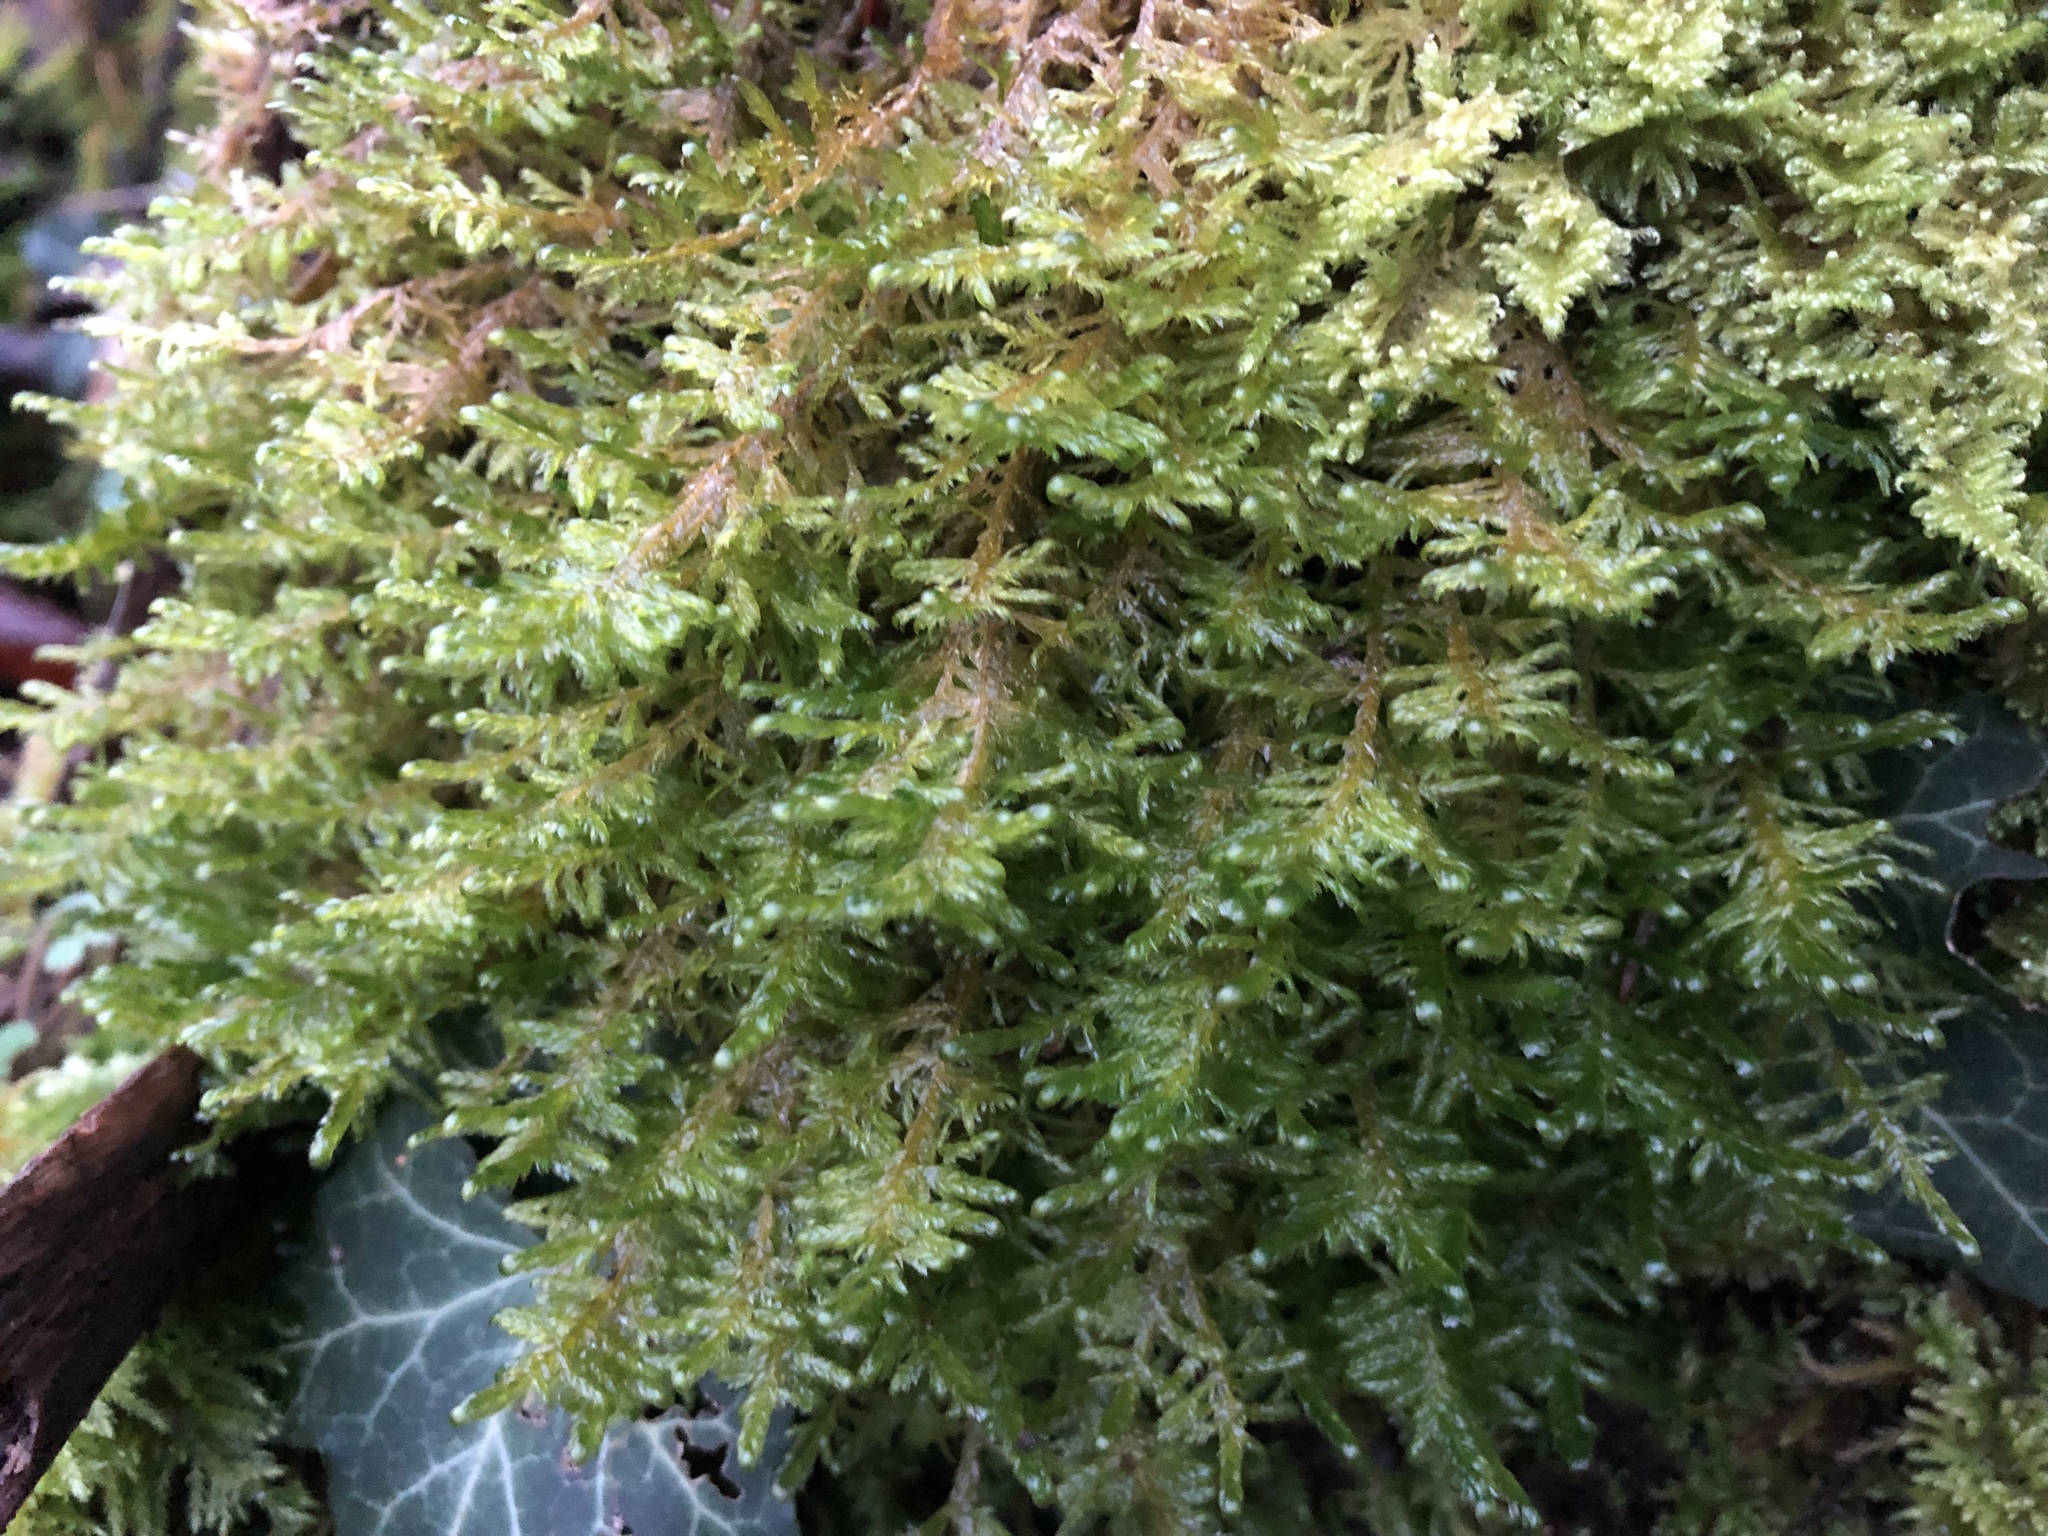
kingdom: Plantae
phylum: Bryophyta
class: Bryopsida
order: Hypnales
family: Neckeraceae
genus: Alleniella
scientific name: Alleniella complanata
